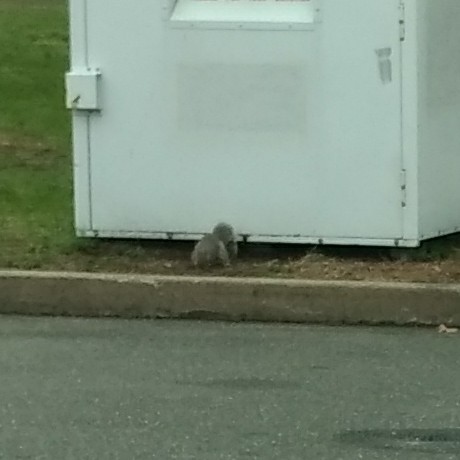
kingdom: Animalia
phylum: Chordata
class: Mammalia
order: Rodentia
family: Sciuridae
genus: Sciurus
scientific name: Sciurus carolinensis
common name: Eastern gray squirrel
